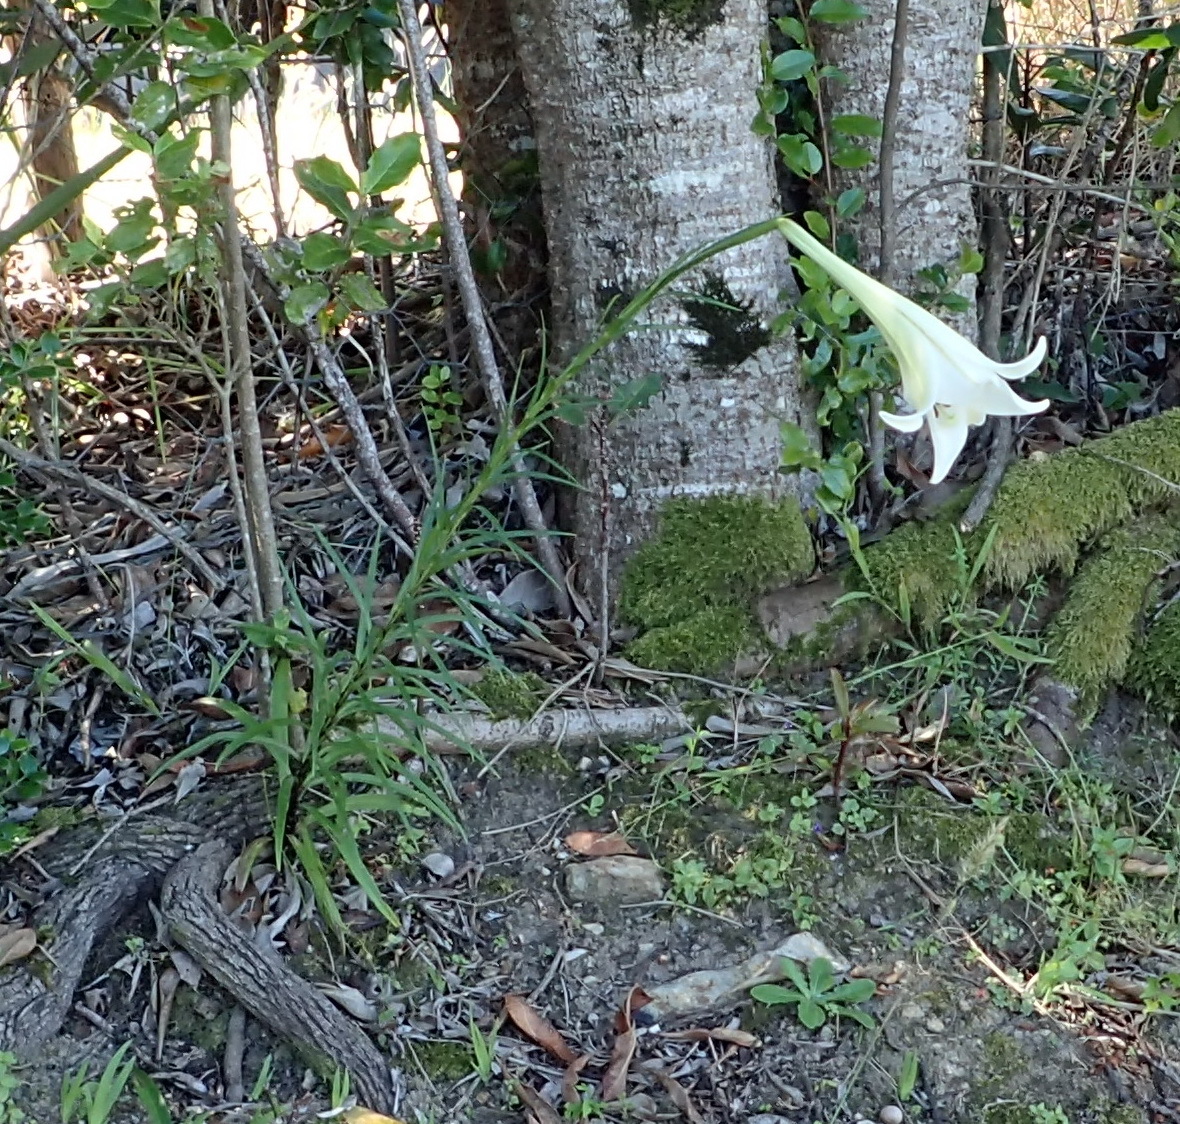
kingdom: Plantae
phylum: Tracheophyta
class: Liliopsida
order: Liliales
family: Liliaceae
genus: Lilium
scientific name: Lilium formosanum
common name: Formosa lily
